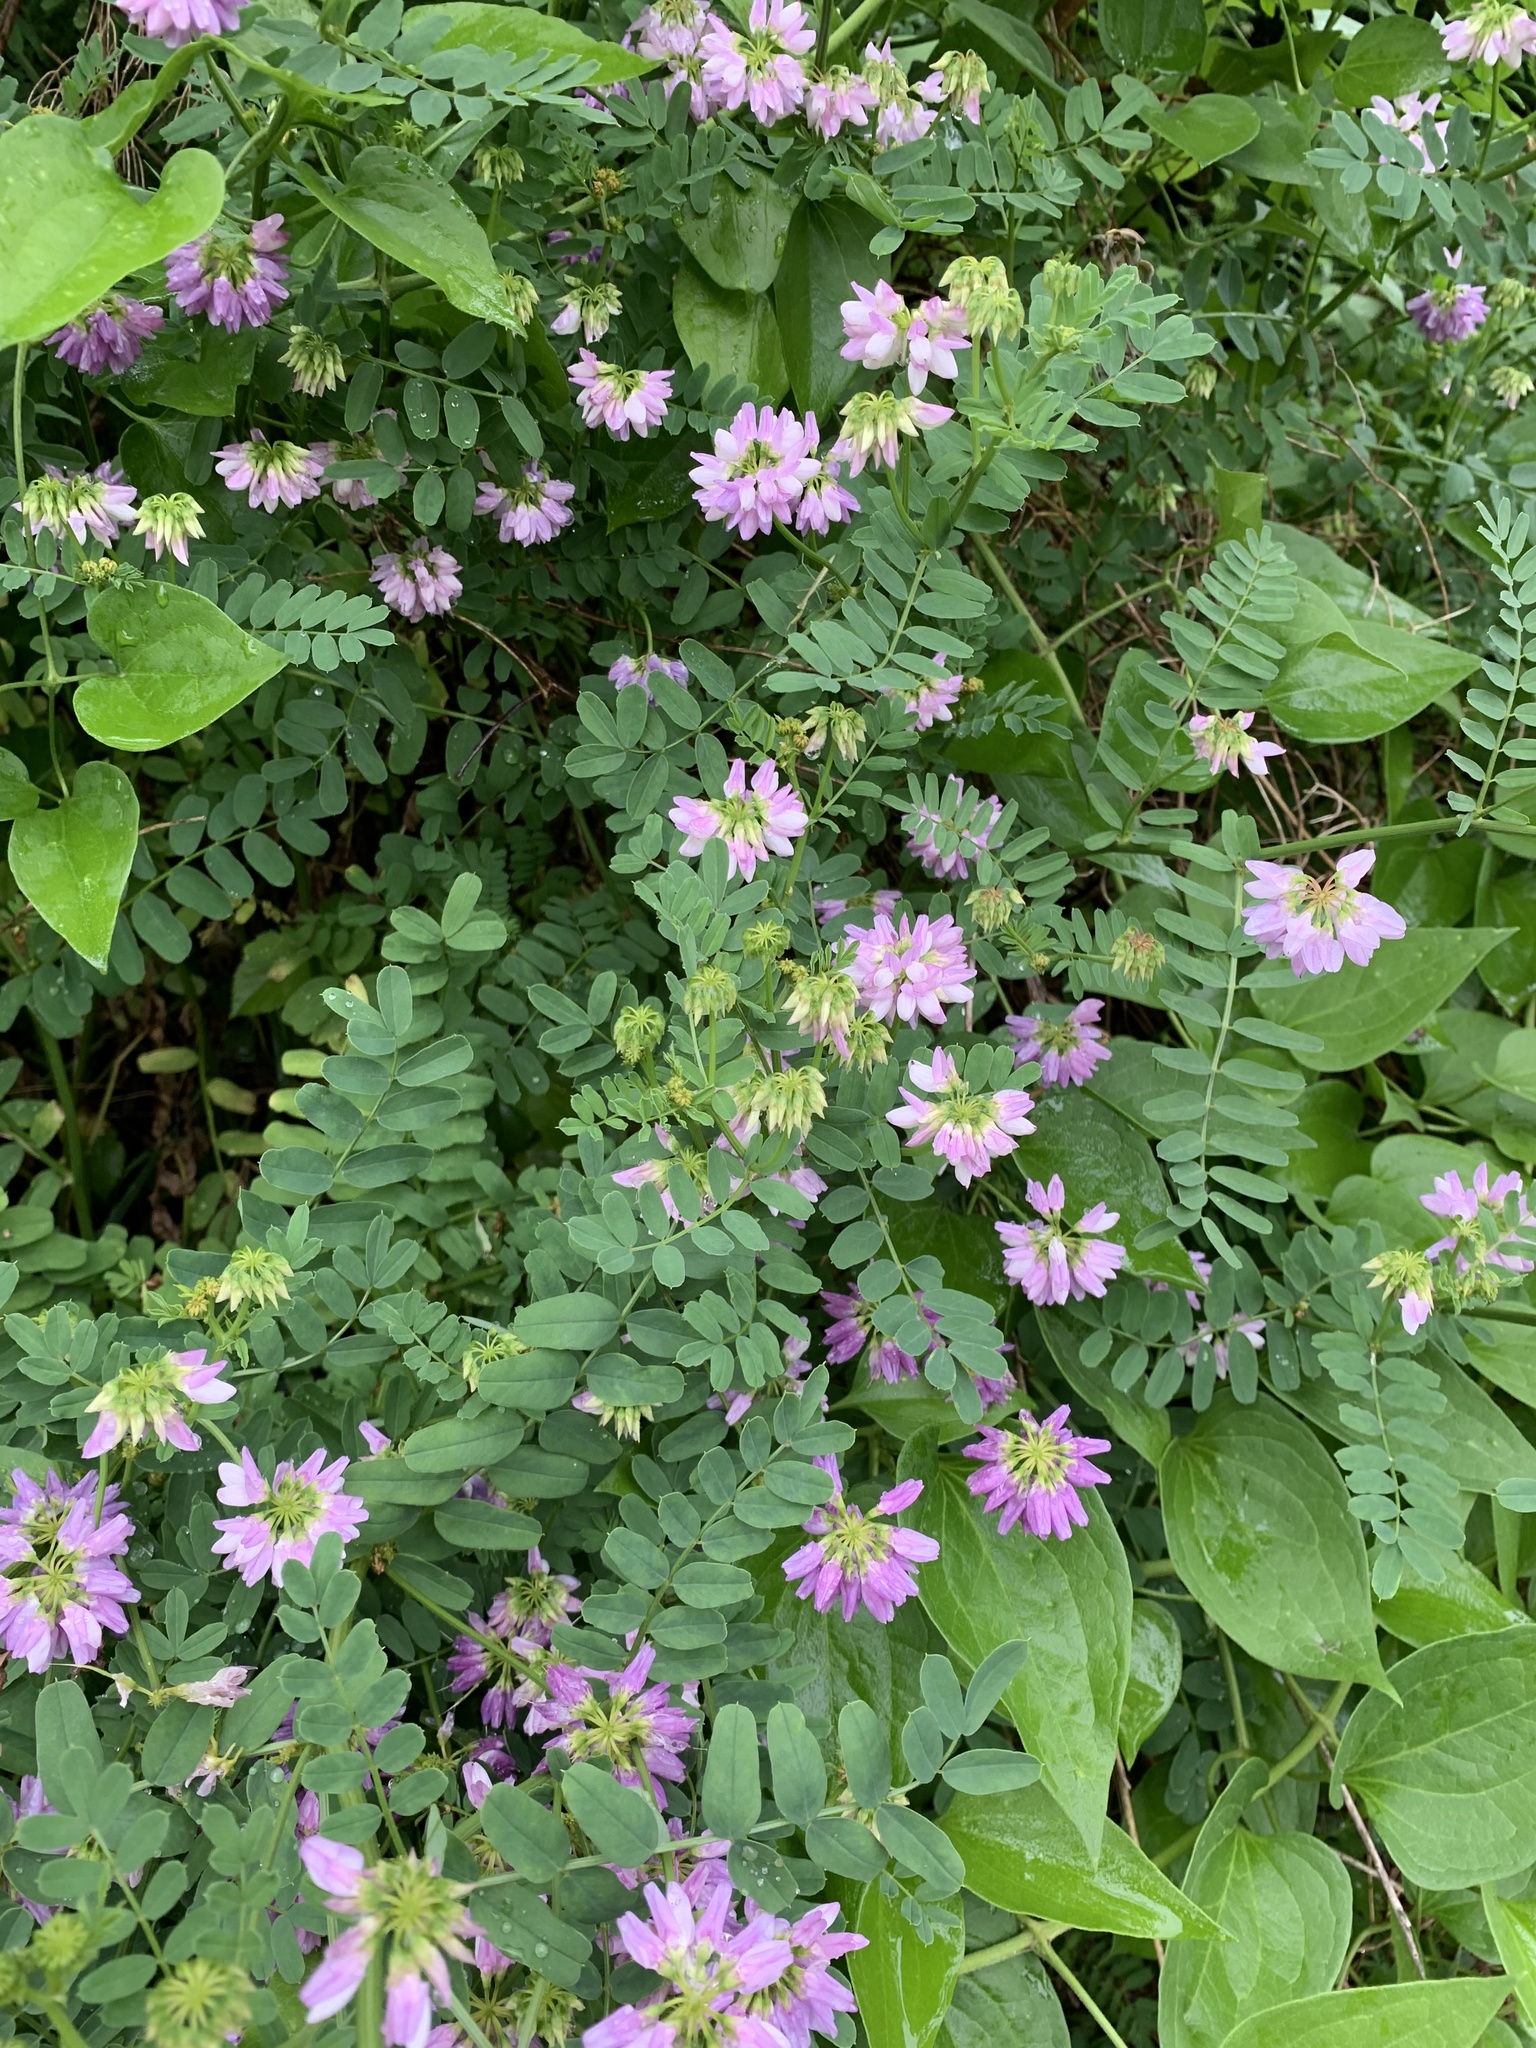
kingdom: Plantae
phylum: Tracheophyta
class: Magnoliopsida
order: Fabales
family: Fabaceae
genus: Coronilla
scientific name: Coronilla varia
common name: Crownvetch
